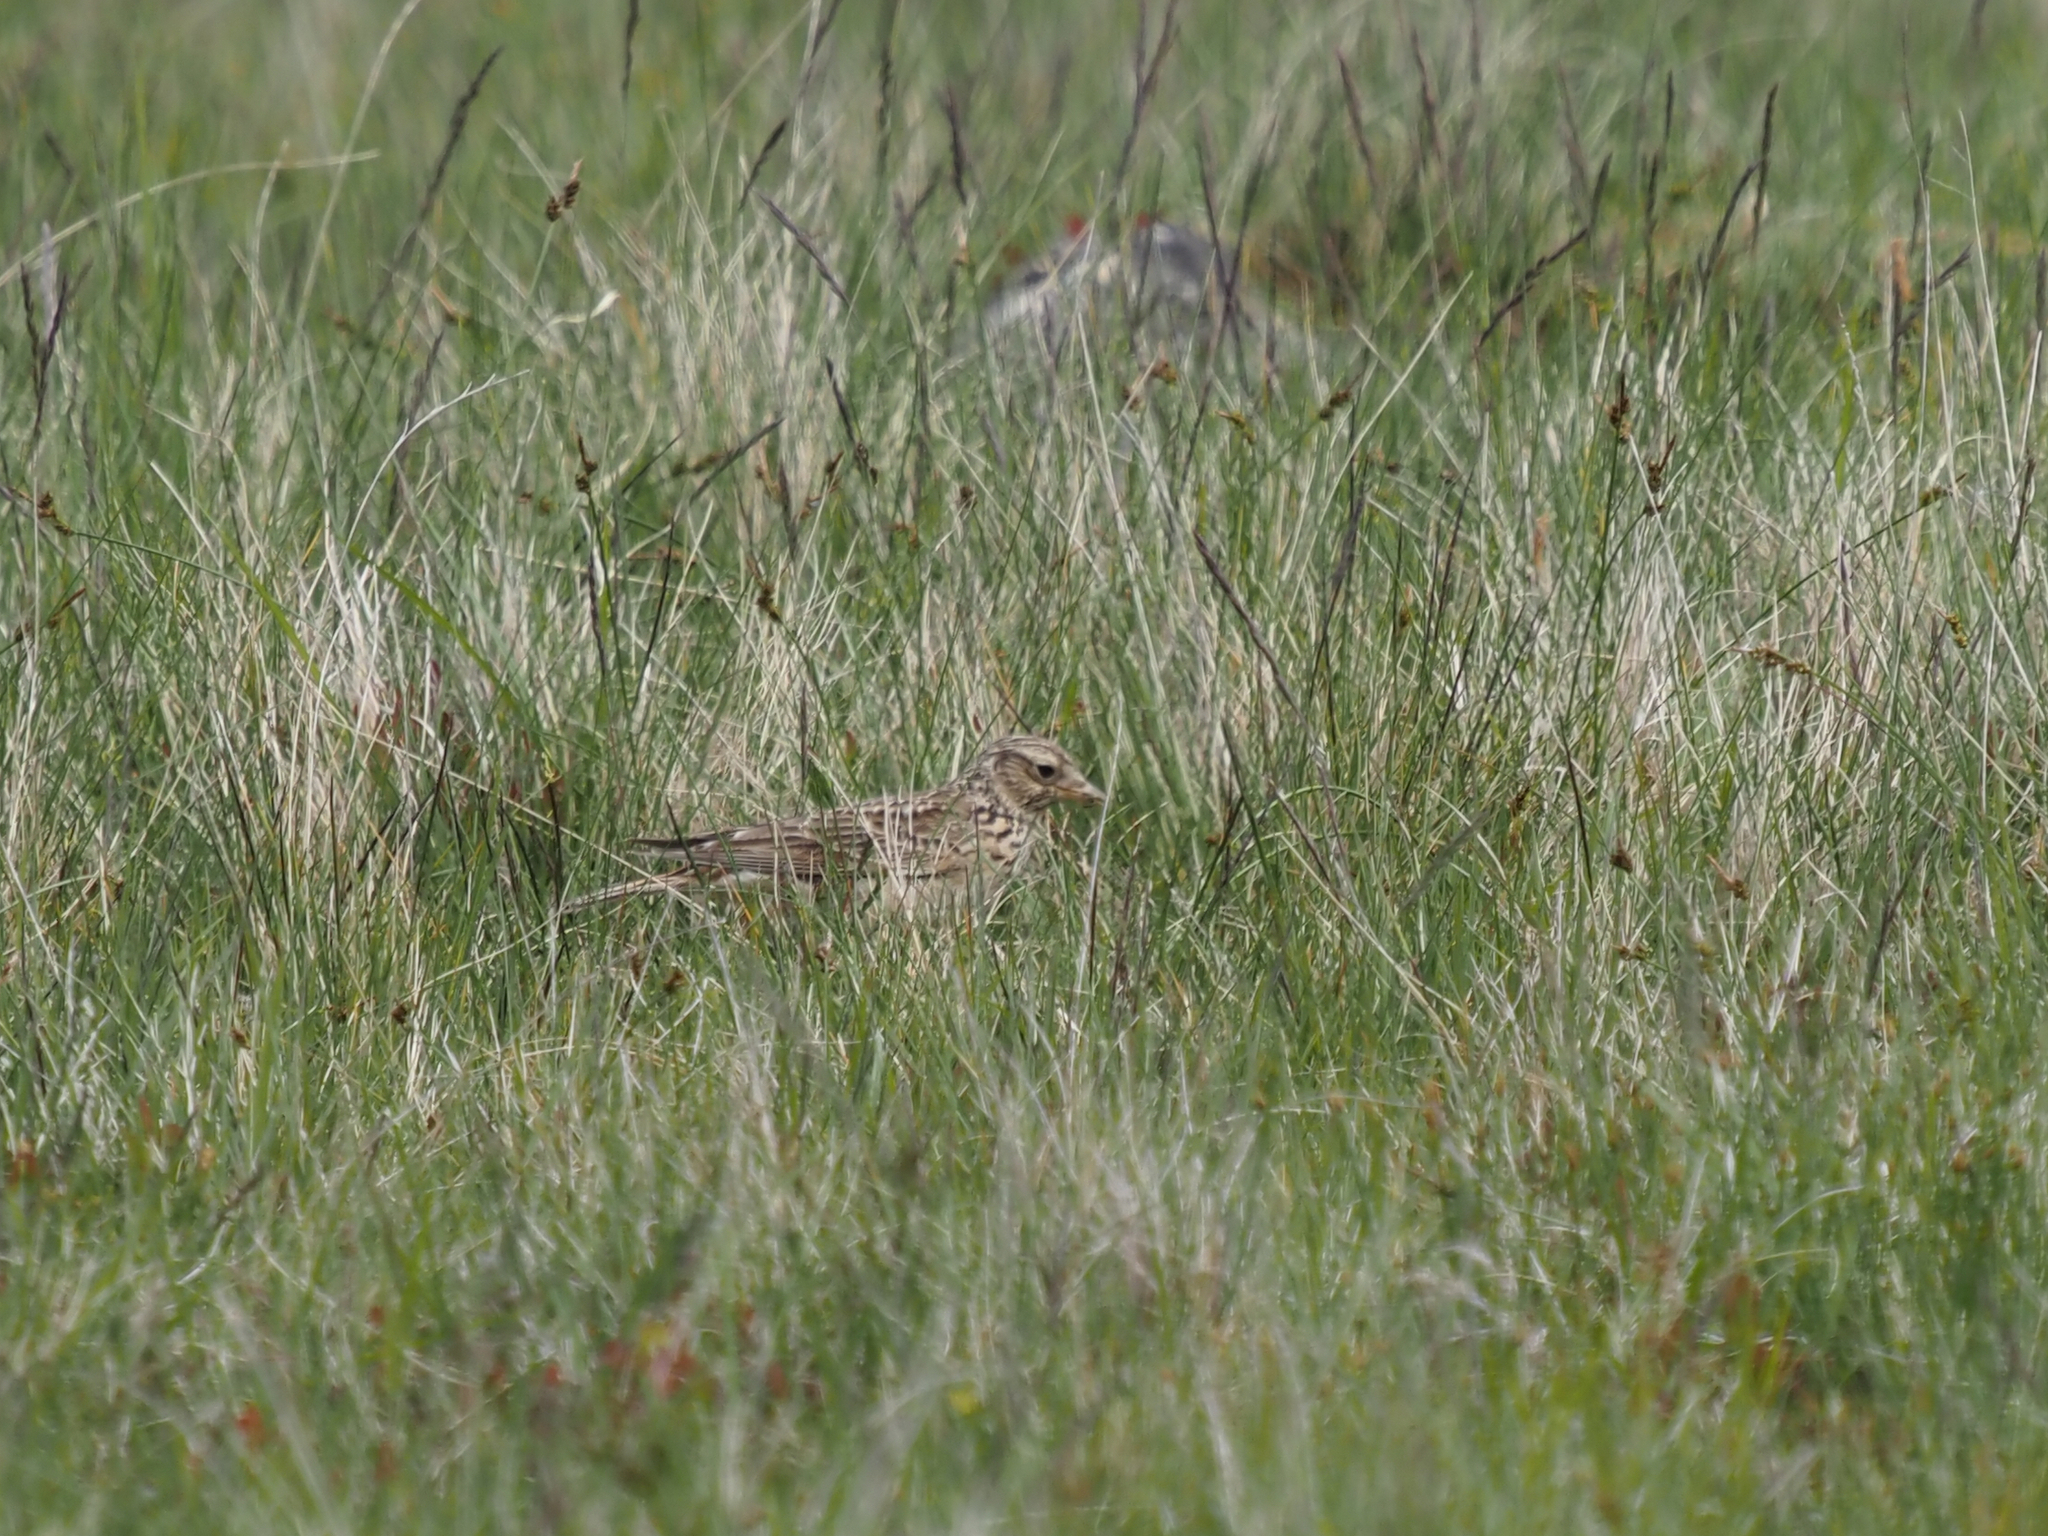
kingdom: Animalia
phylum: Chordata
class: Aves
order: Passeriformes
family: Alaudidae
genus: Alauda
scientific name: Alauda arvensis
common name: Eurasian skylark
